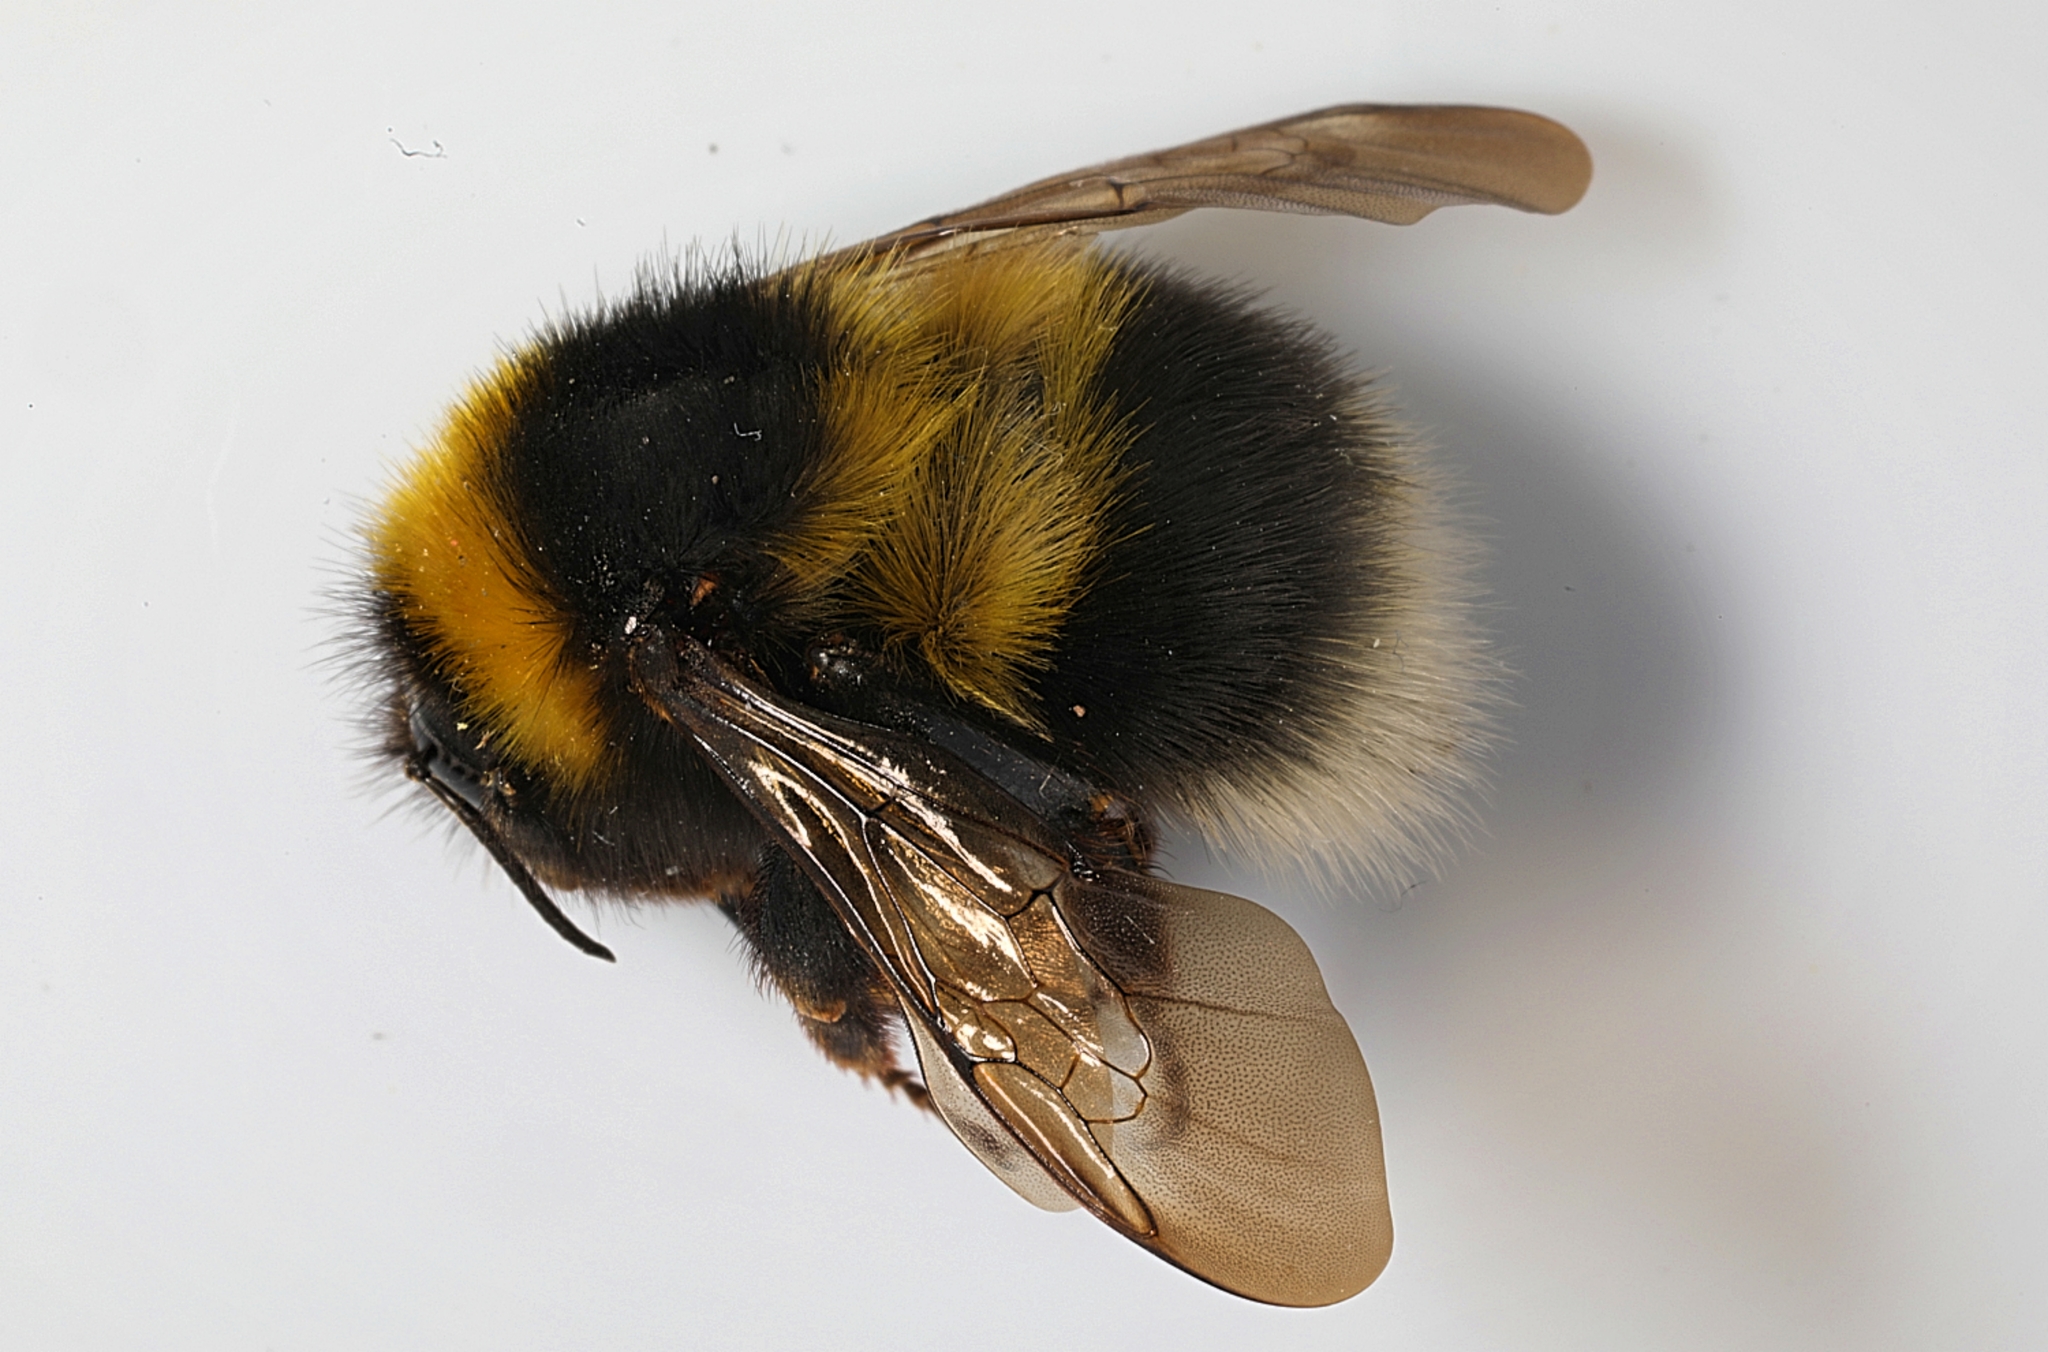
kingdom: Animalia
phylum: Arthropoda
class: Insecta
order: Hymenoptera
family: Apidae
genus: Bombus
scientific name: Bombus hortorum
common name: Garden bumblebee
